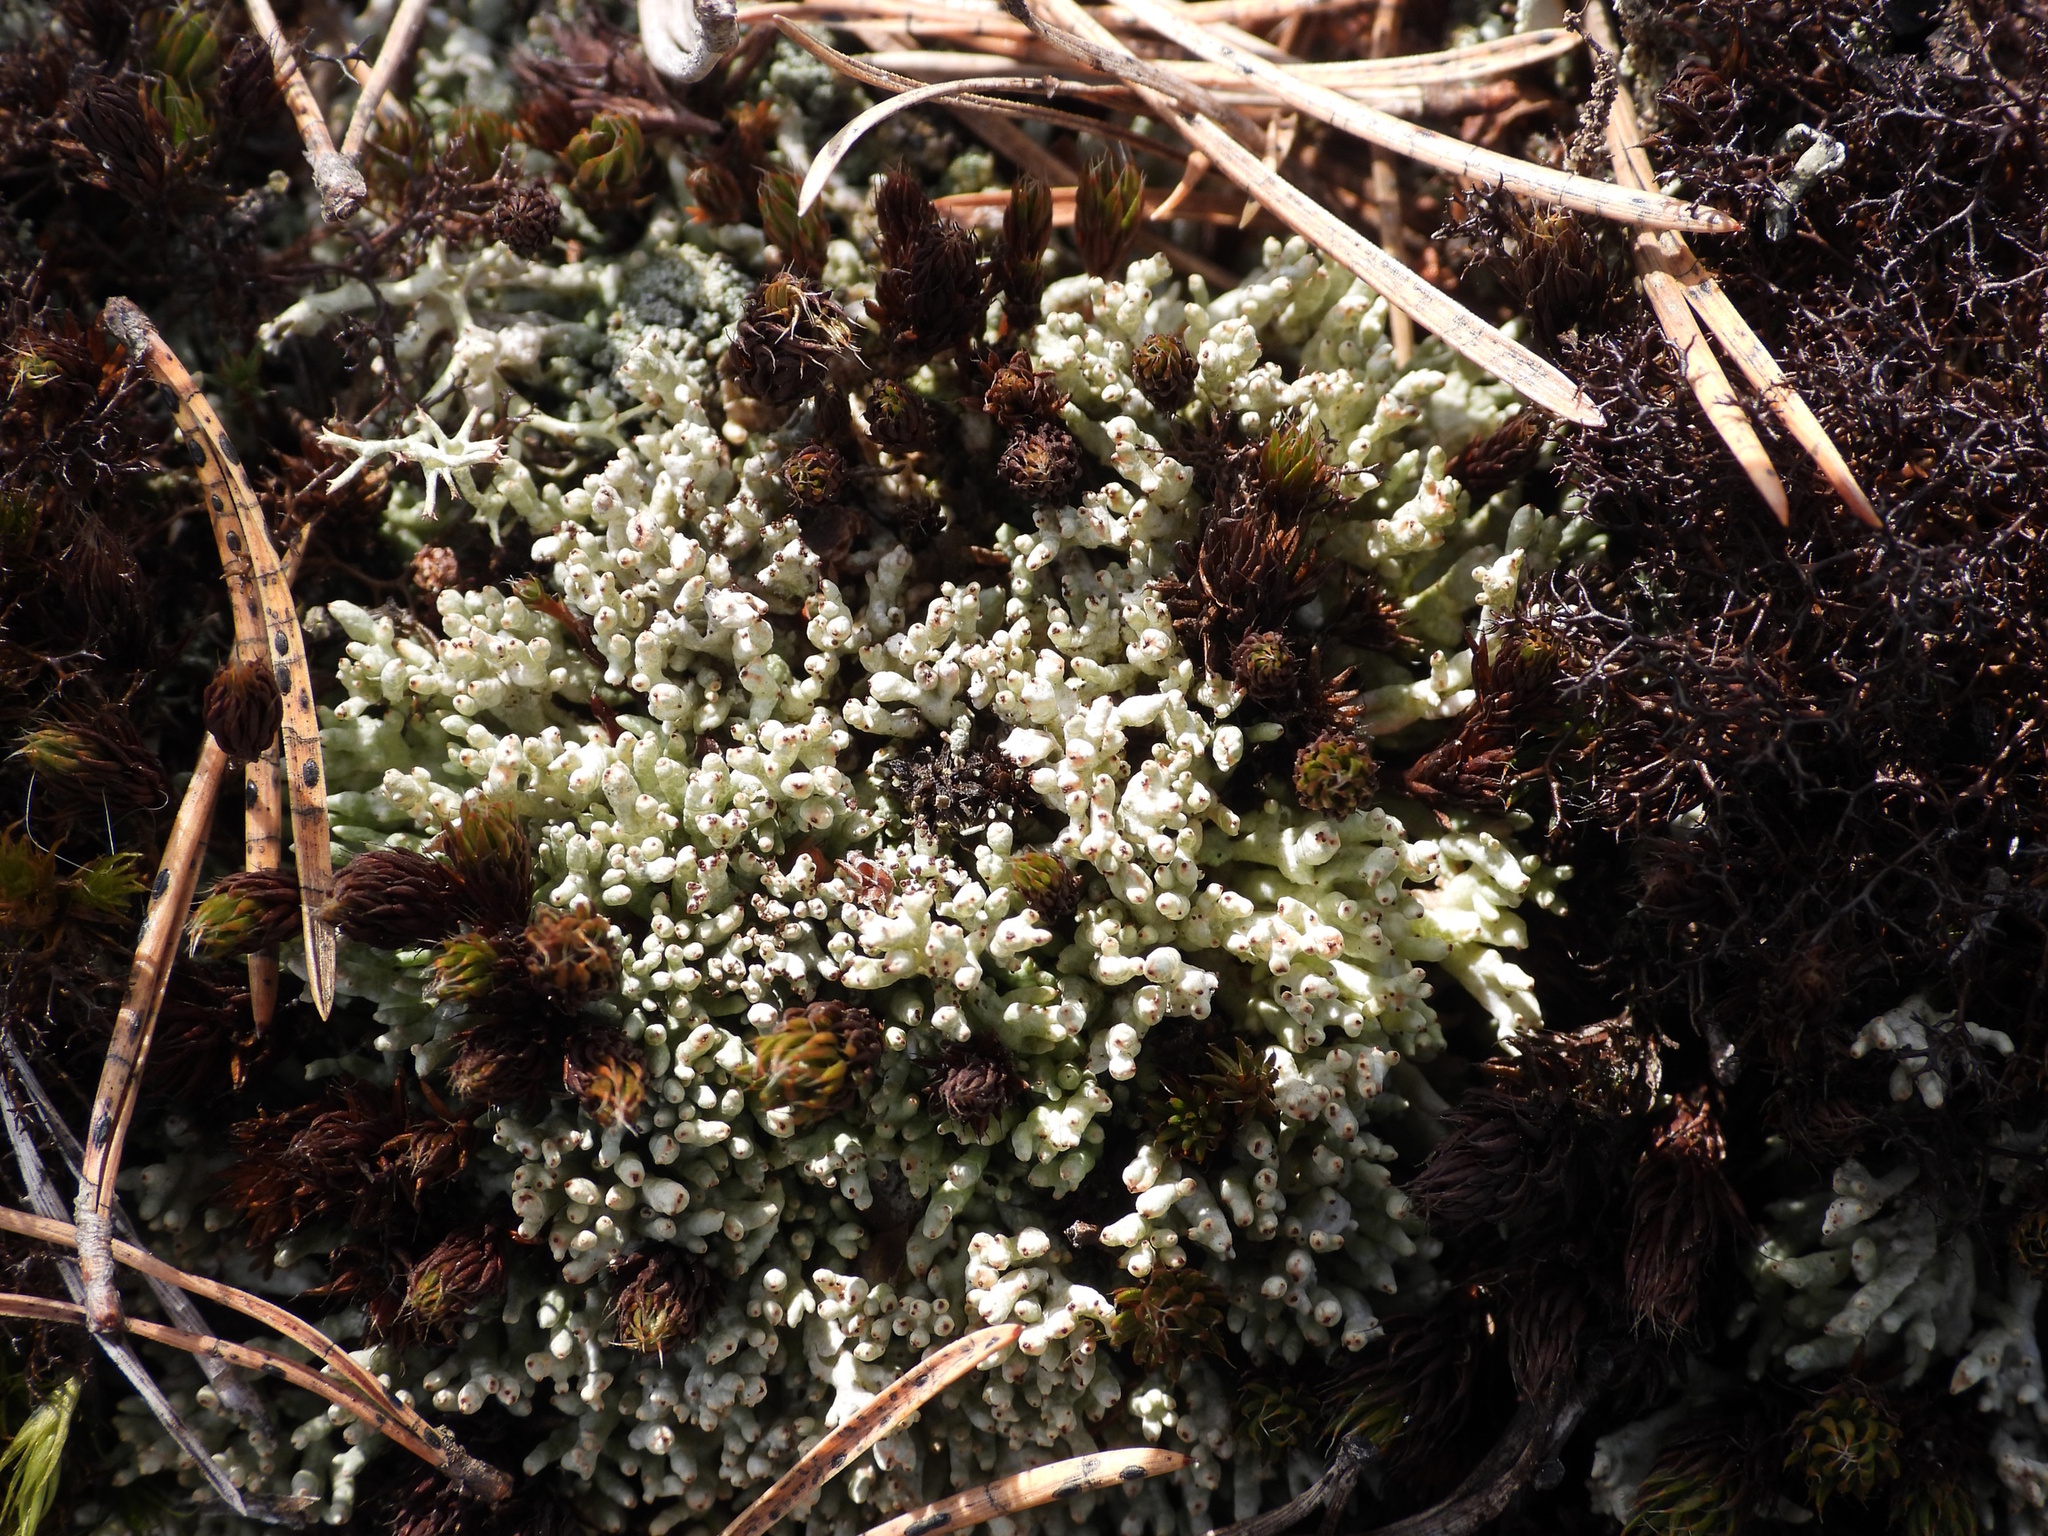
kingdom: Fungi
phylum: Ascomycota
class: Lecanoromycetes
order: Lecanorales
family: Cladoniaceae
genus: Pycnothelia
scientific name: Pycnothelia papillaria
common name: Nipple lichen
